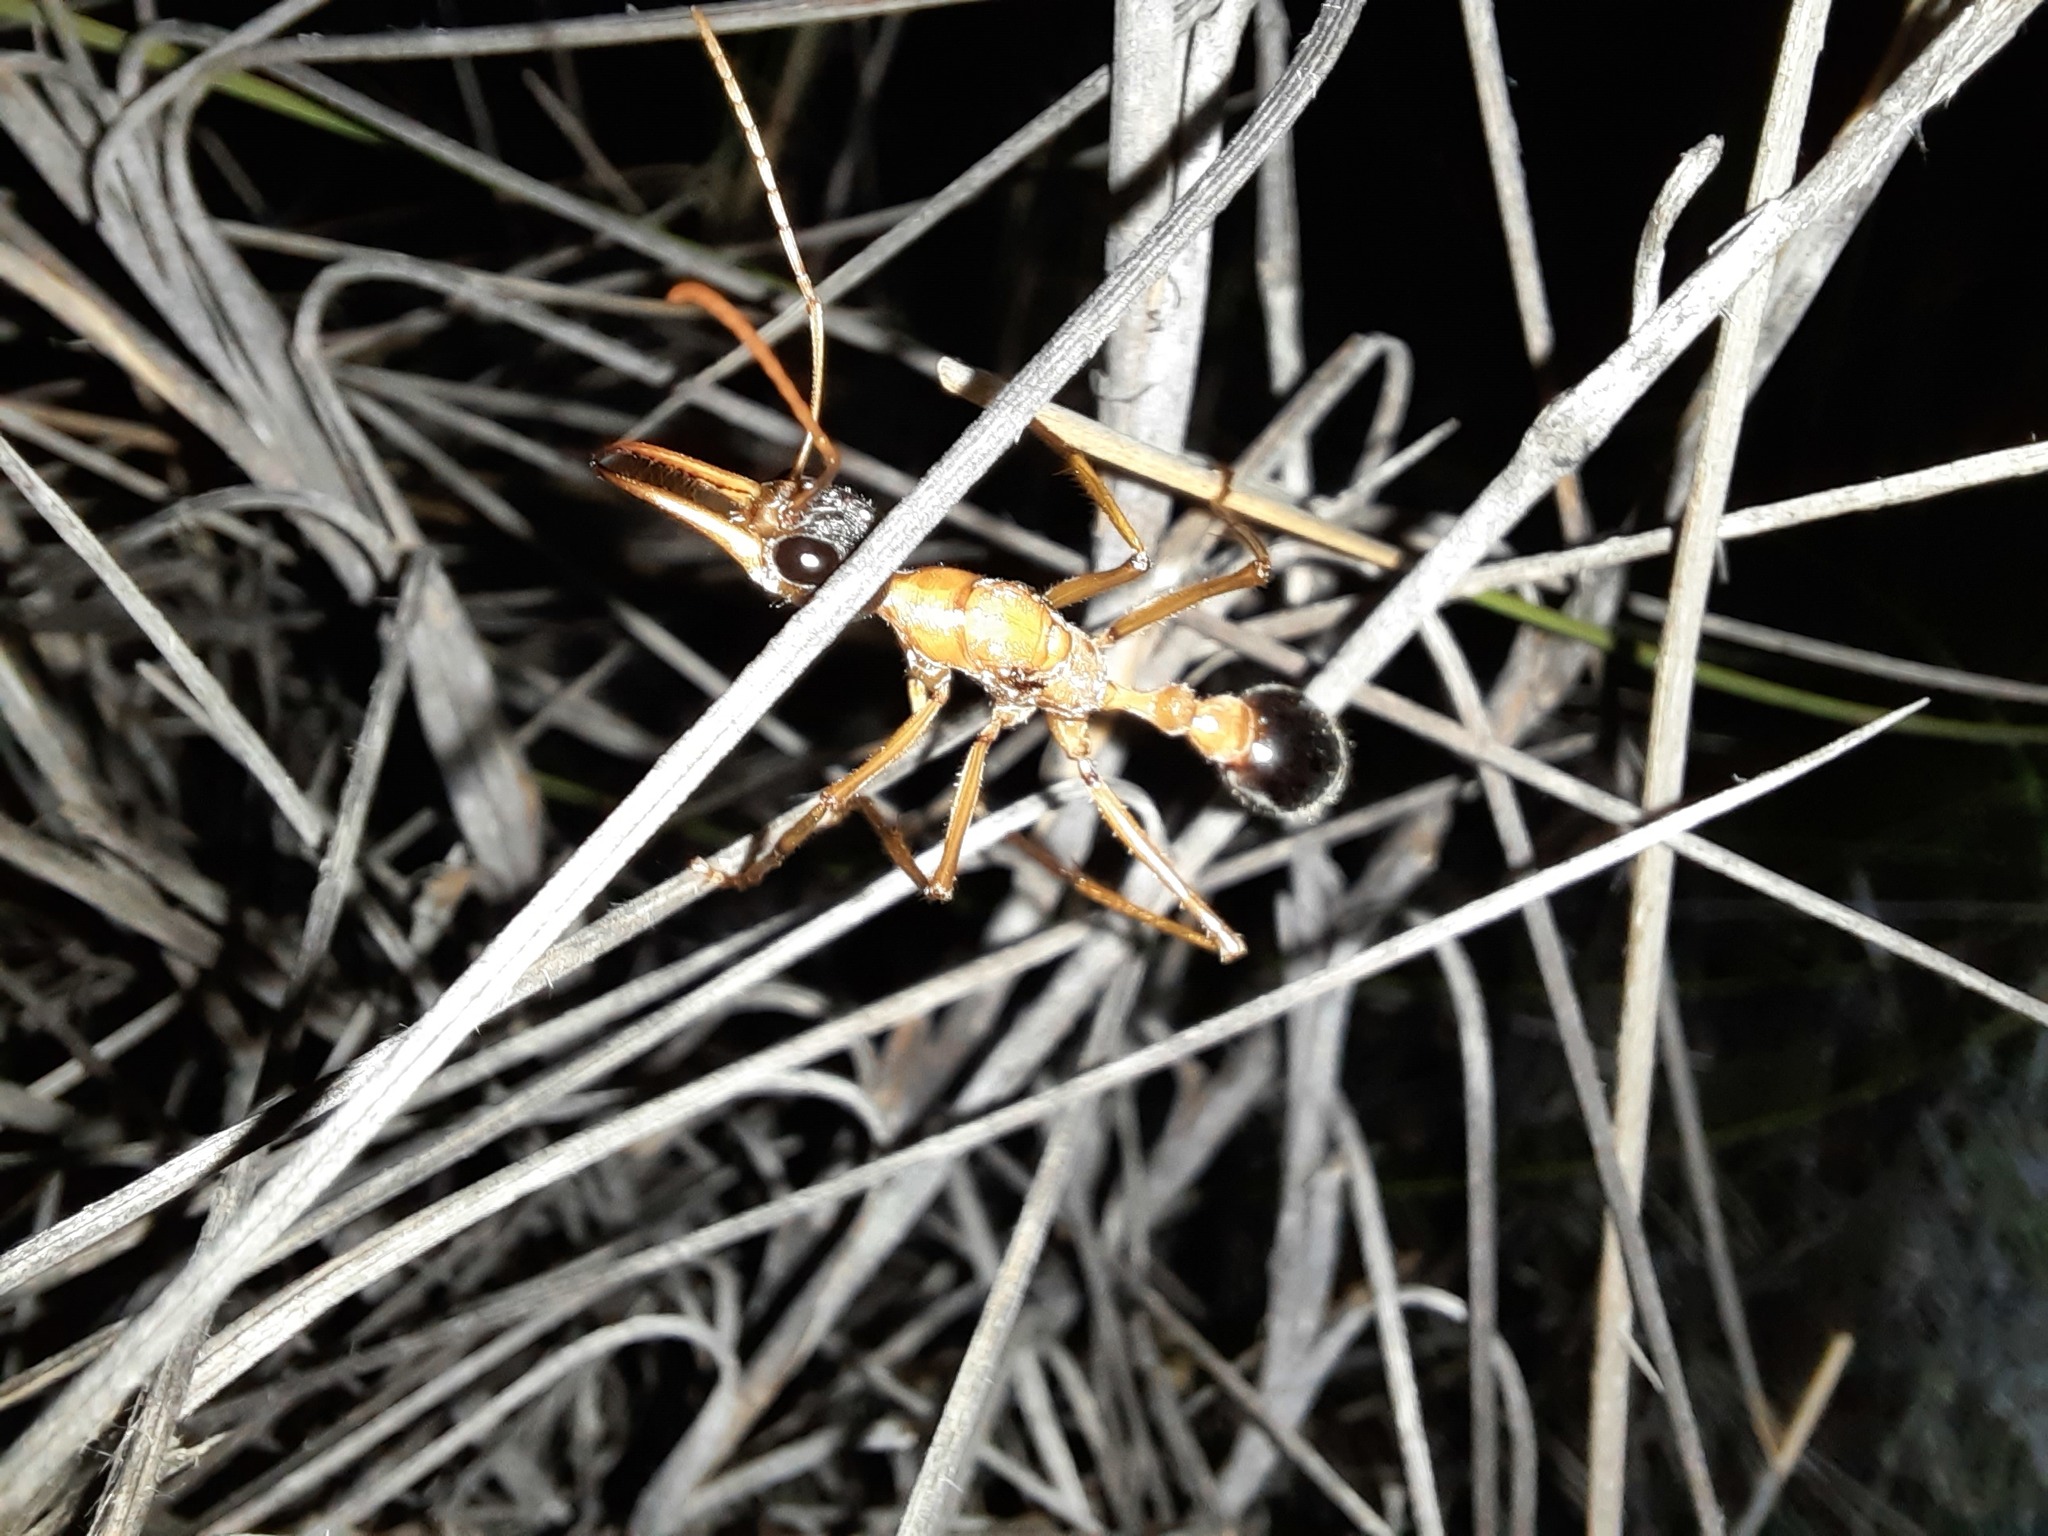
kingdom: Animalia
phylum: Arthropoda
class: Insecta
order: Hymenoptera
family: Formicidae
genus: Myrmecia
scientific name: Myrmecia desertorum
